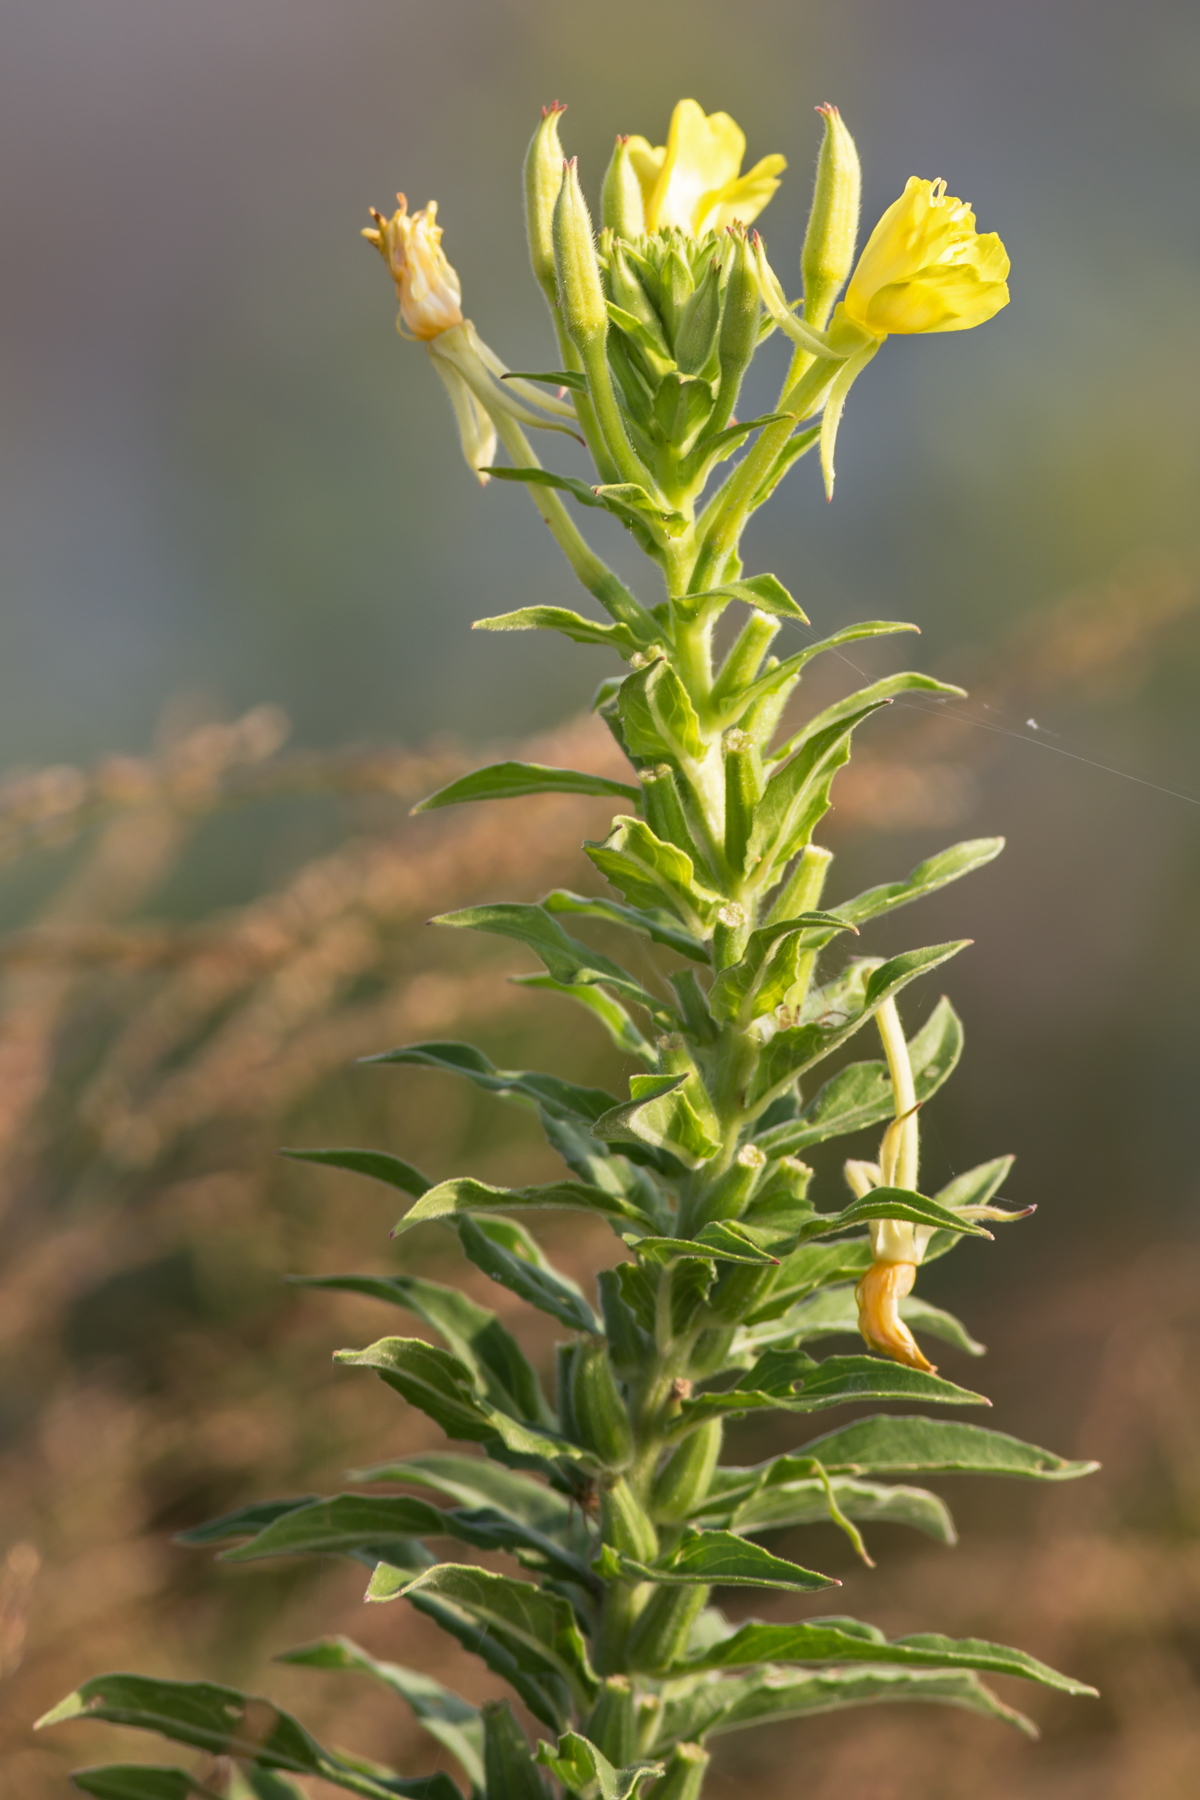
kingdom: Plantae
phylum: Tracheophyta
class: Magnoliopsida
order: Myrtales
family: Onagraceae
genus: Oenothera
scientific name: Oenothera biennis
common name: Common evening-primrose
